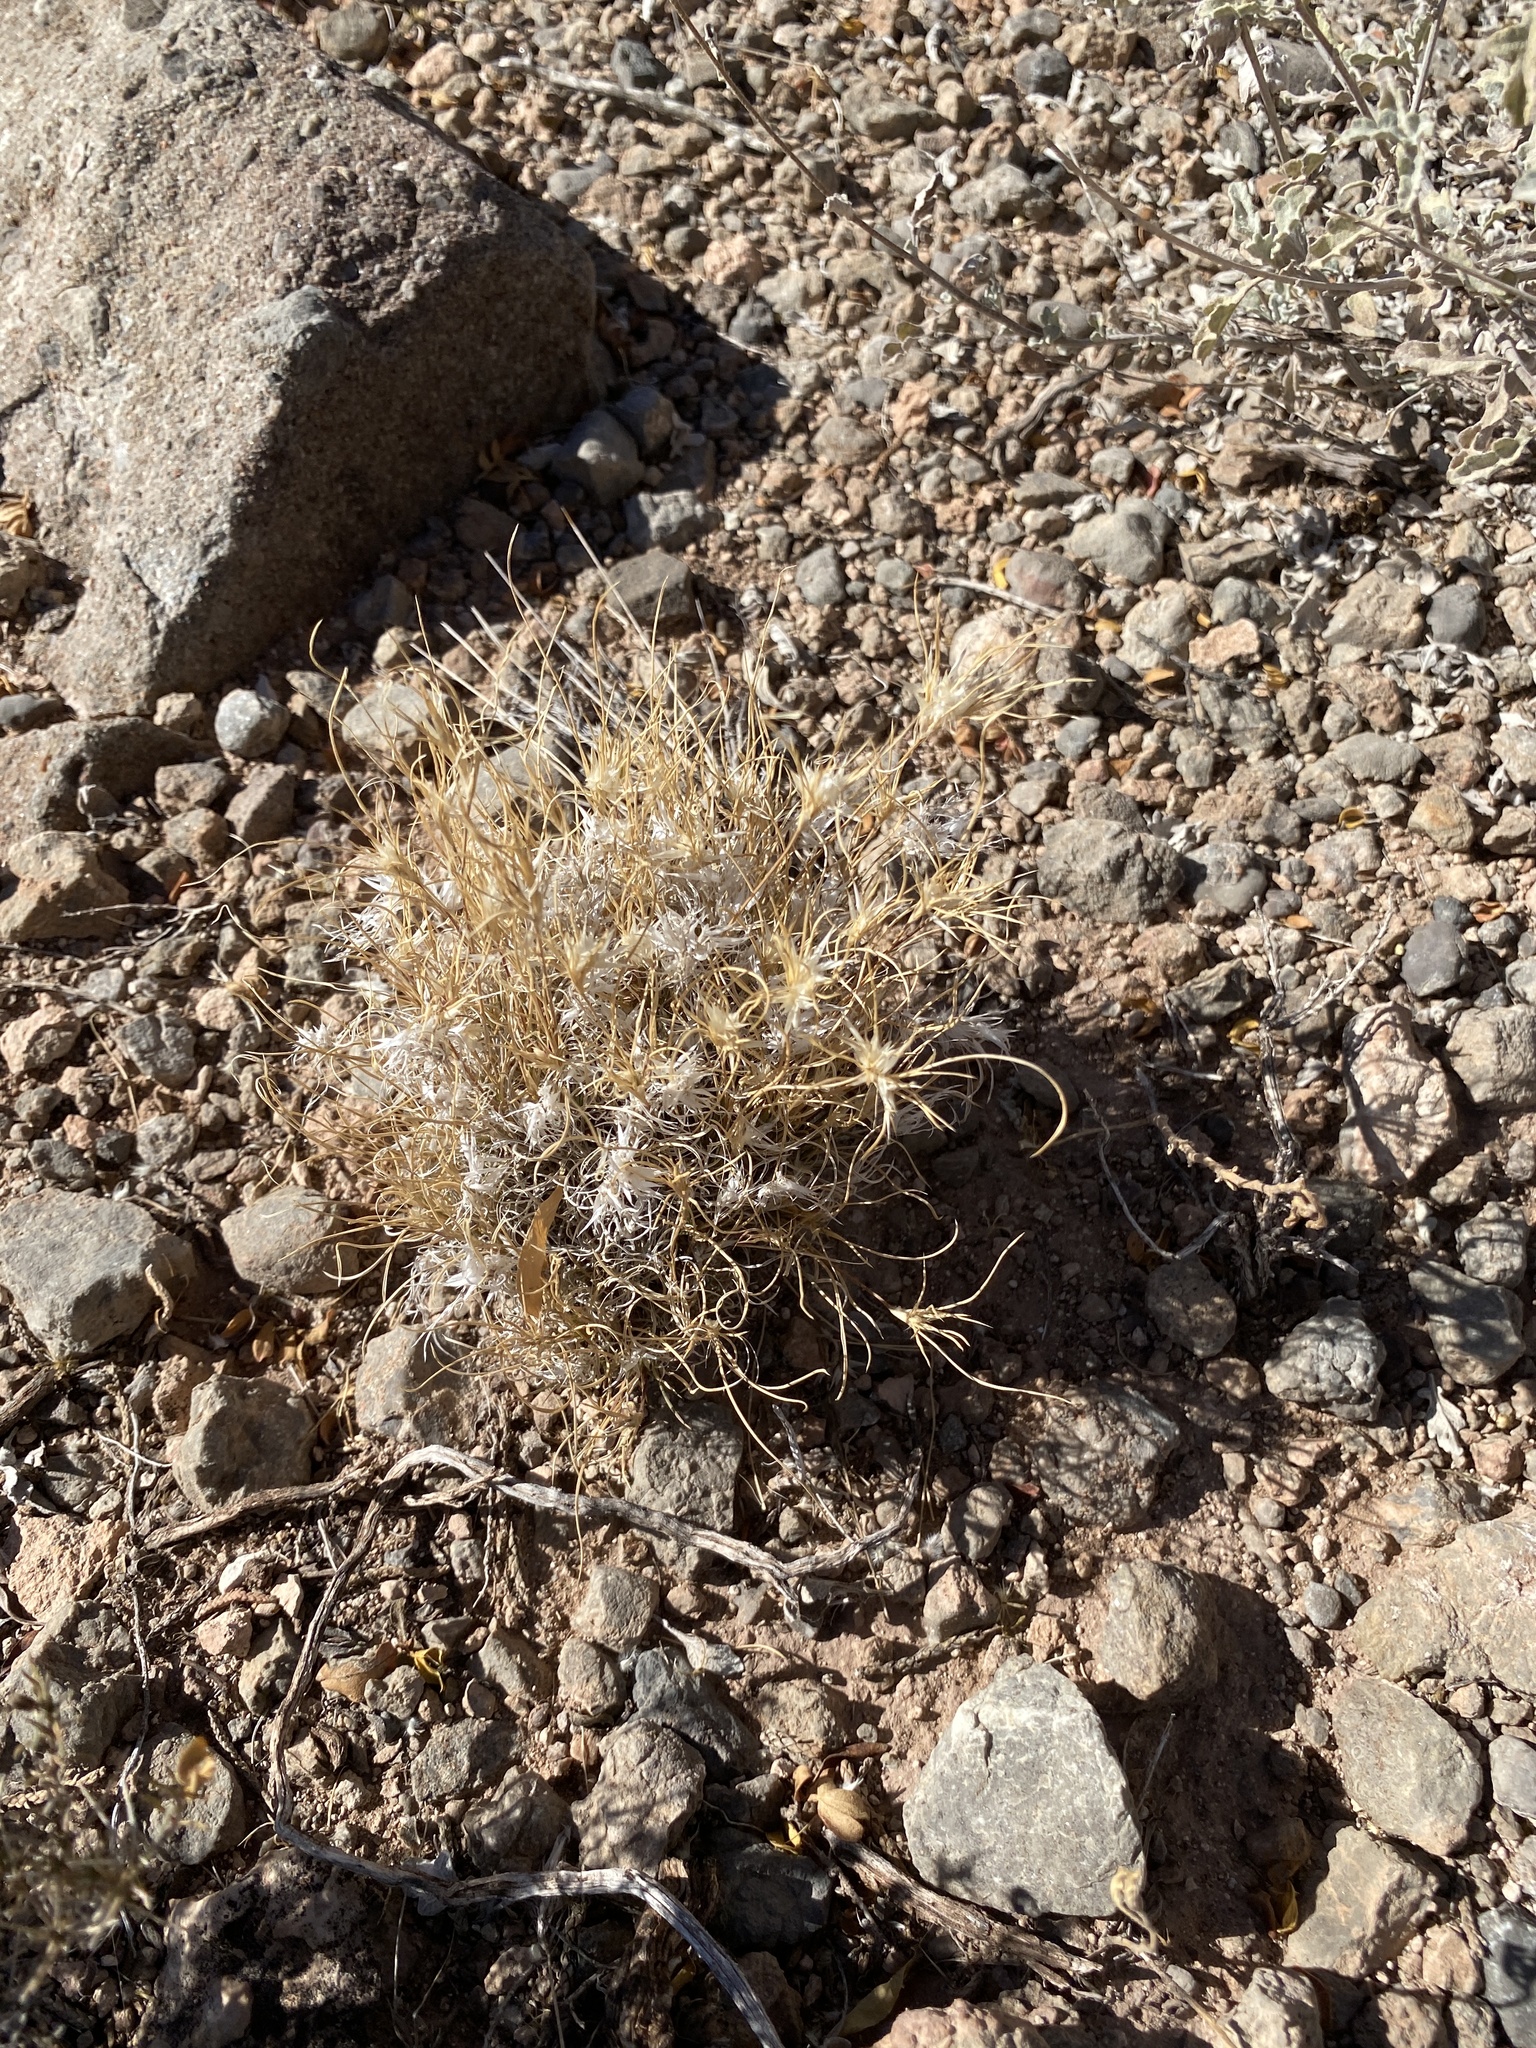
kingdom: Plantae
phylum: Tracheophyta
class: Liliopsida
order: Poales
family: Poaceae
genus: Dasyochloa
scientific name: Dasyochloa pulchella
